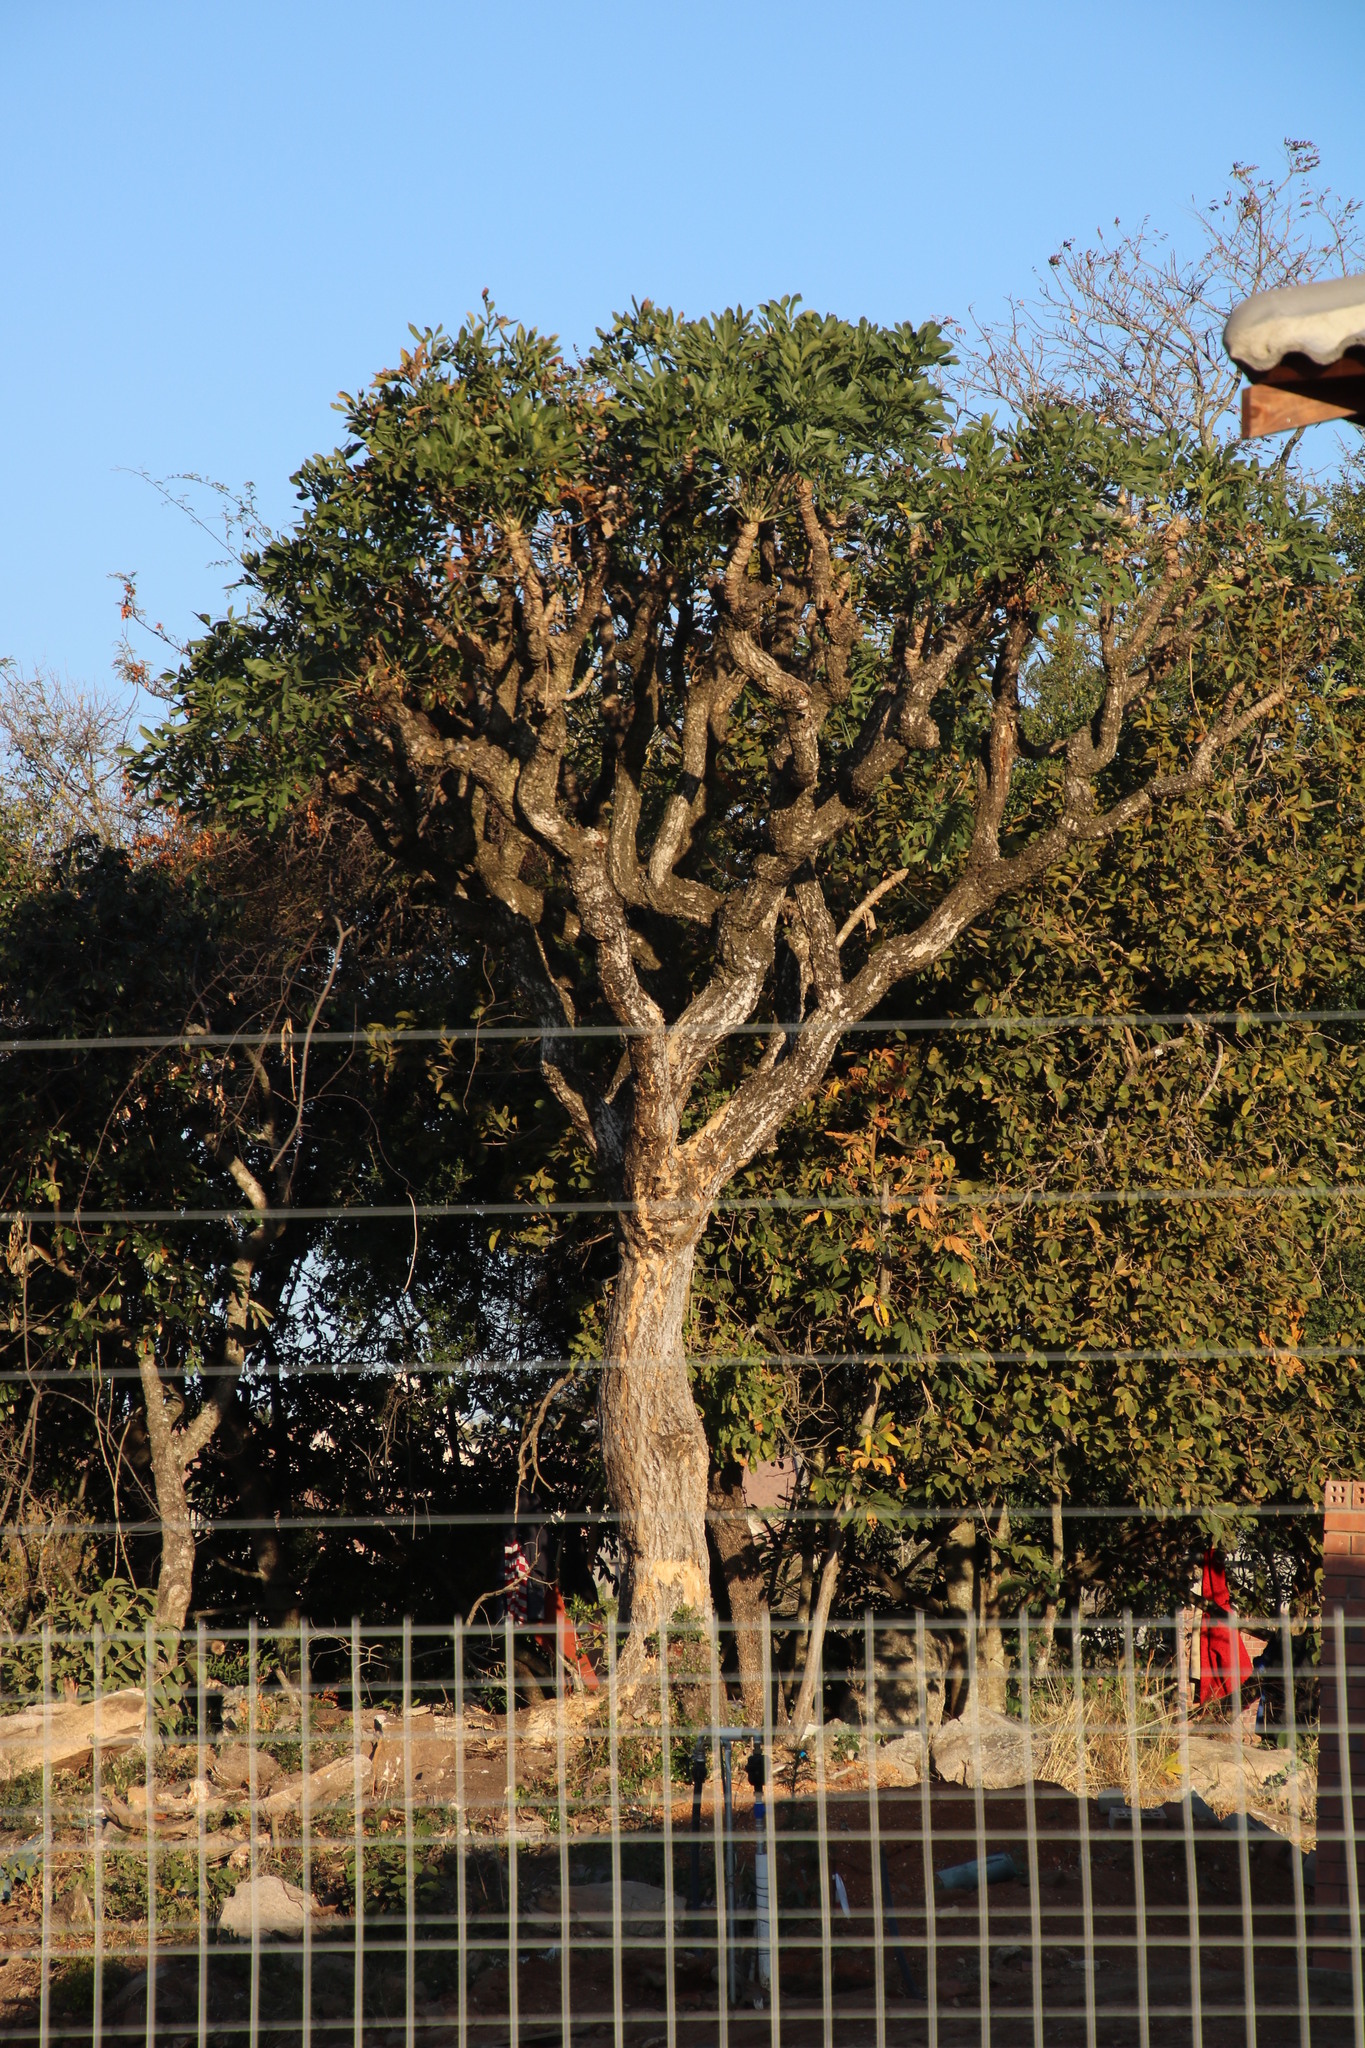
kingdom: Plantae
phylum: Tracheophyta
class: Magnoliopsida
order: Apiales
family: Araliaceae
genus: Cussonia
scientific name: Cussonia spicata
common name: Common cabbagetree
